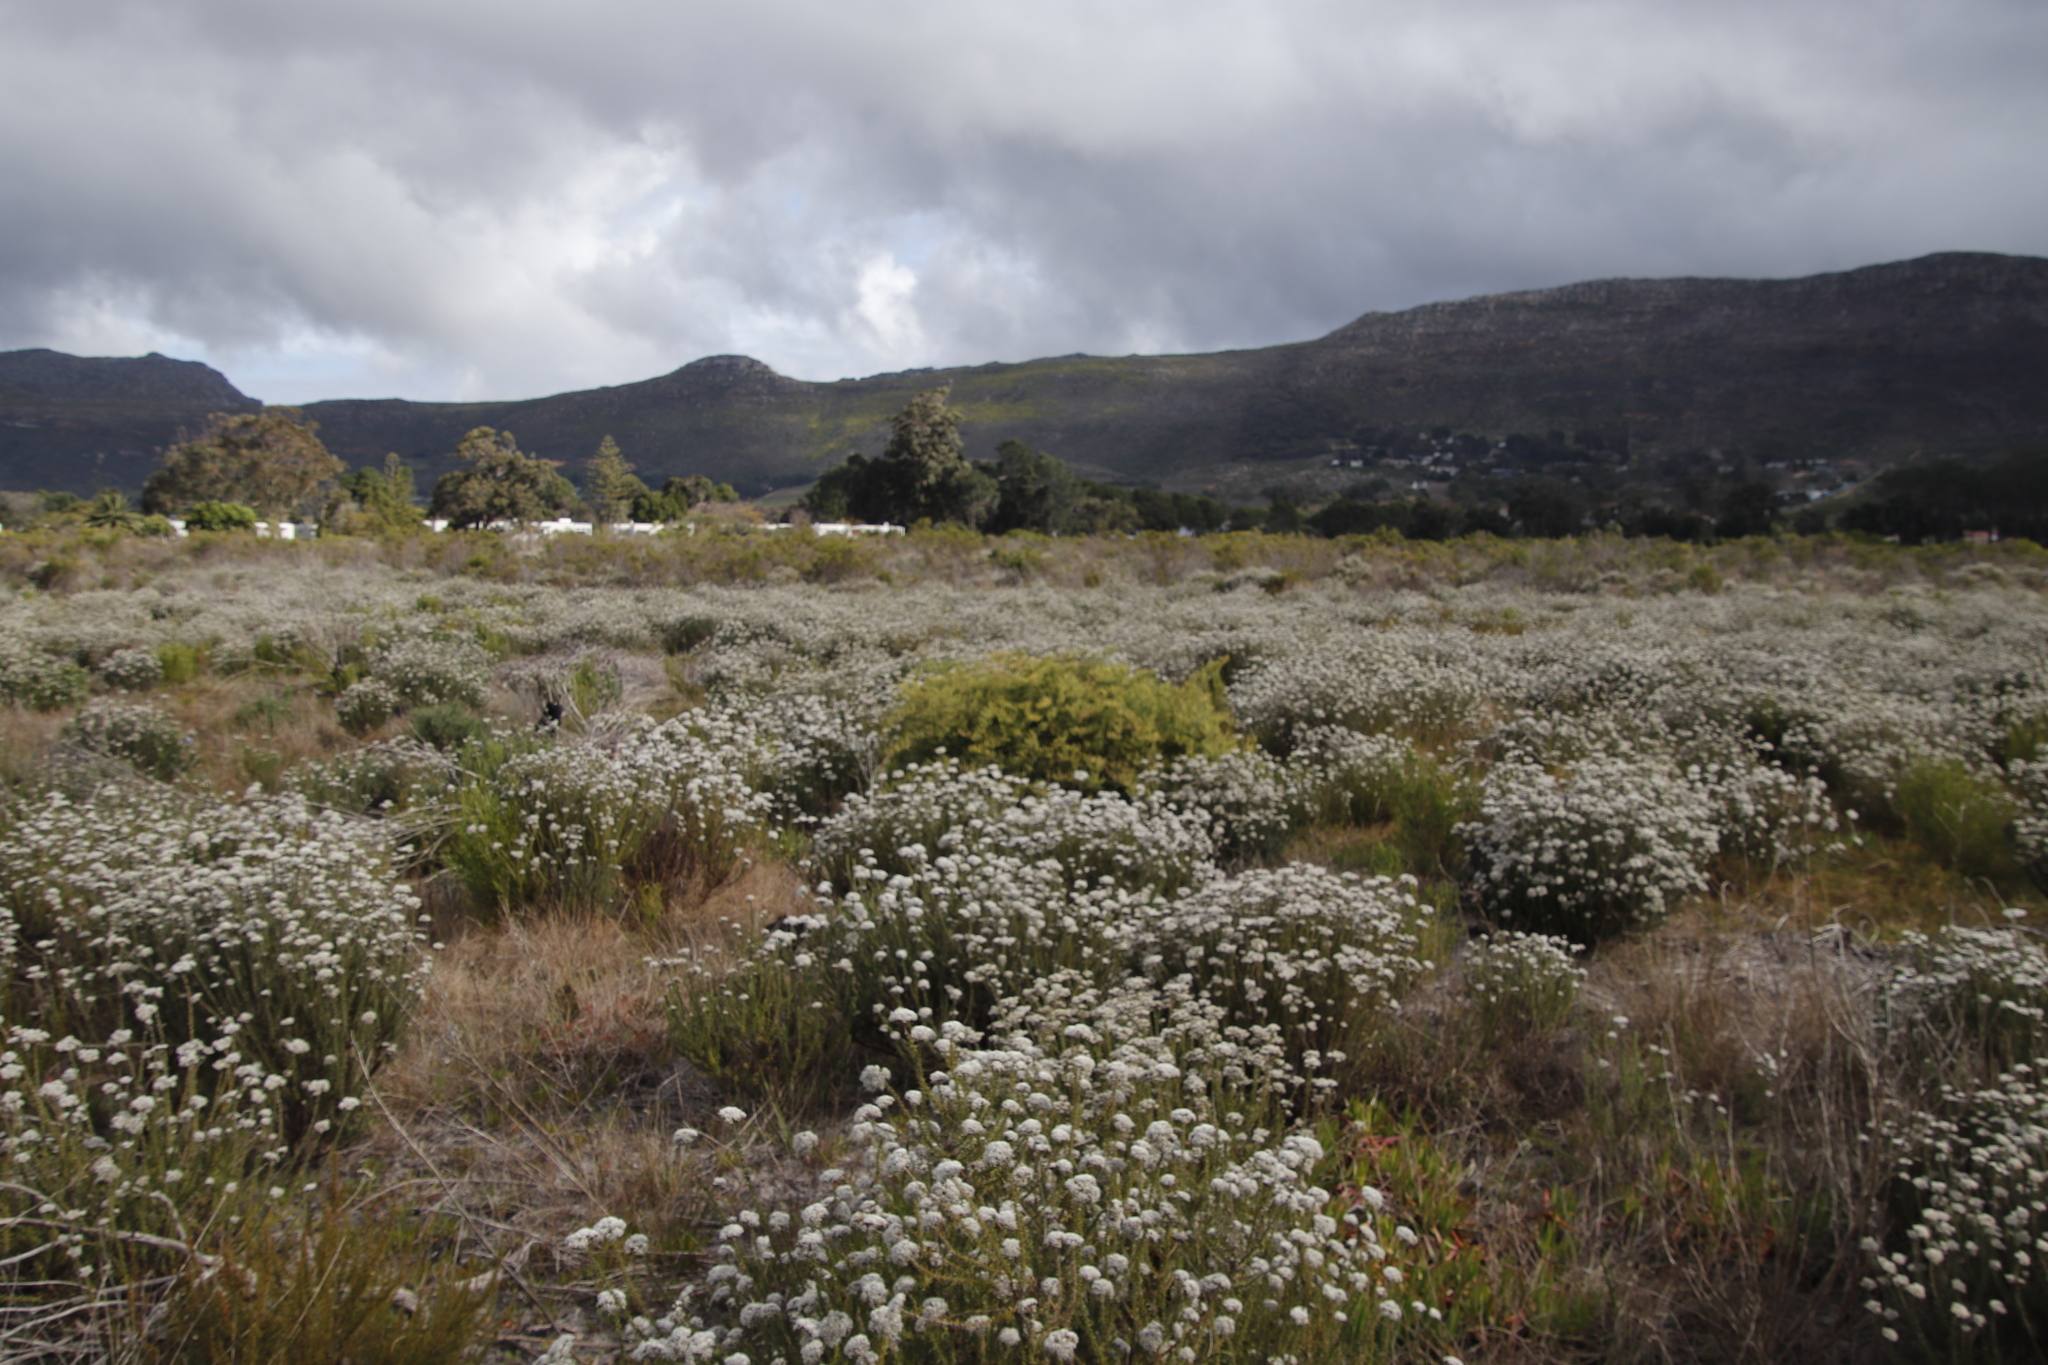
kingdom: Plantae
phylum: Tracheophyta
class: Magnoliopsida
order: Asterales
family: Asteraceae
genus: Metalasia
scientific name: Metalasia densa
